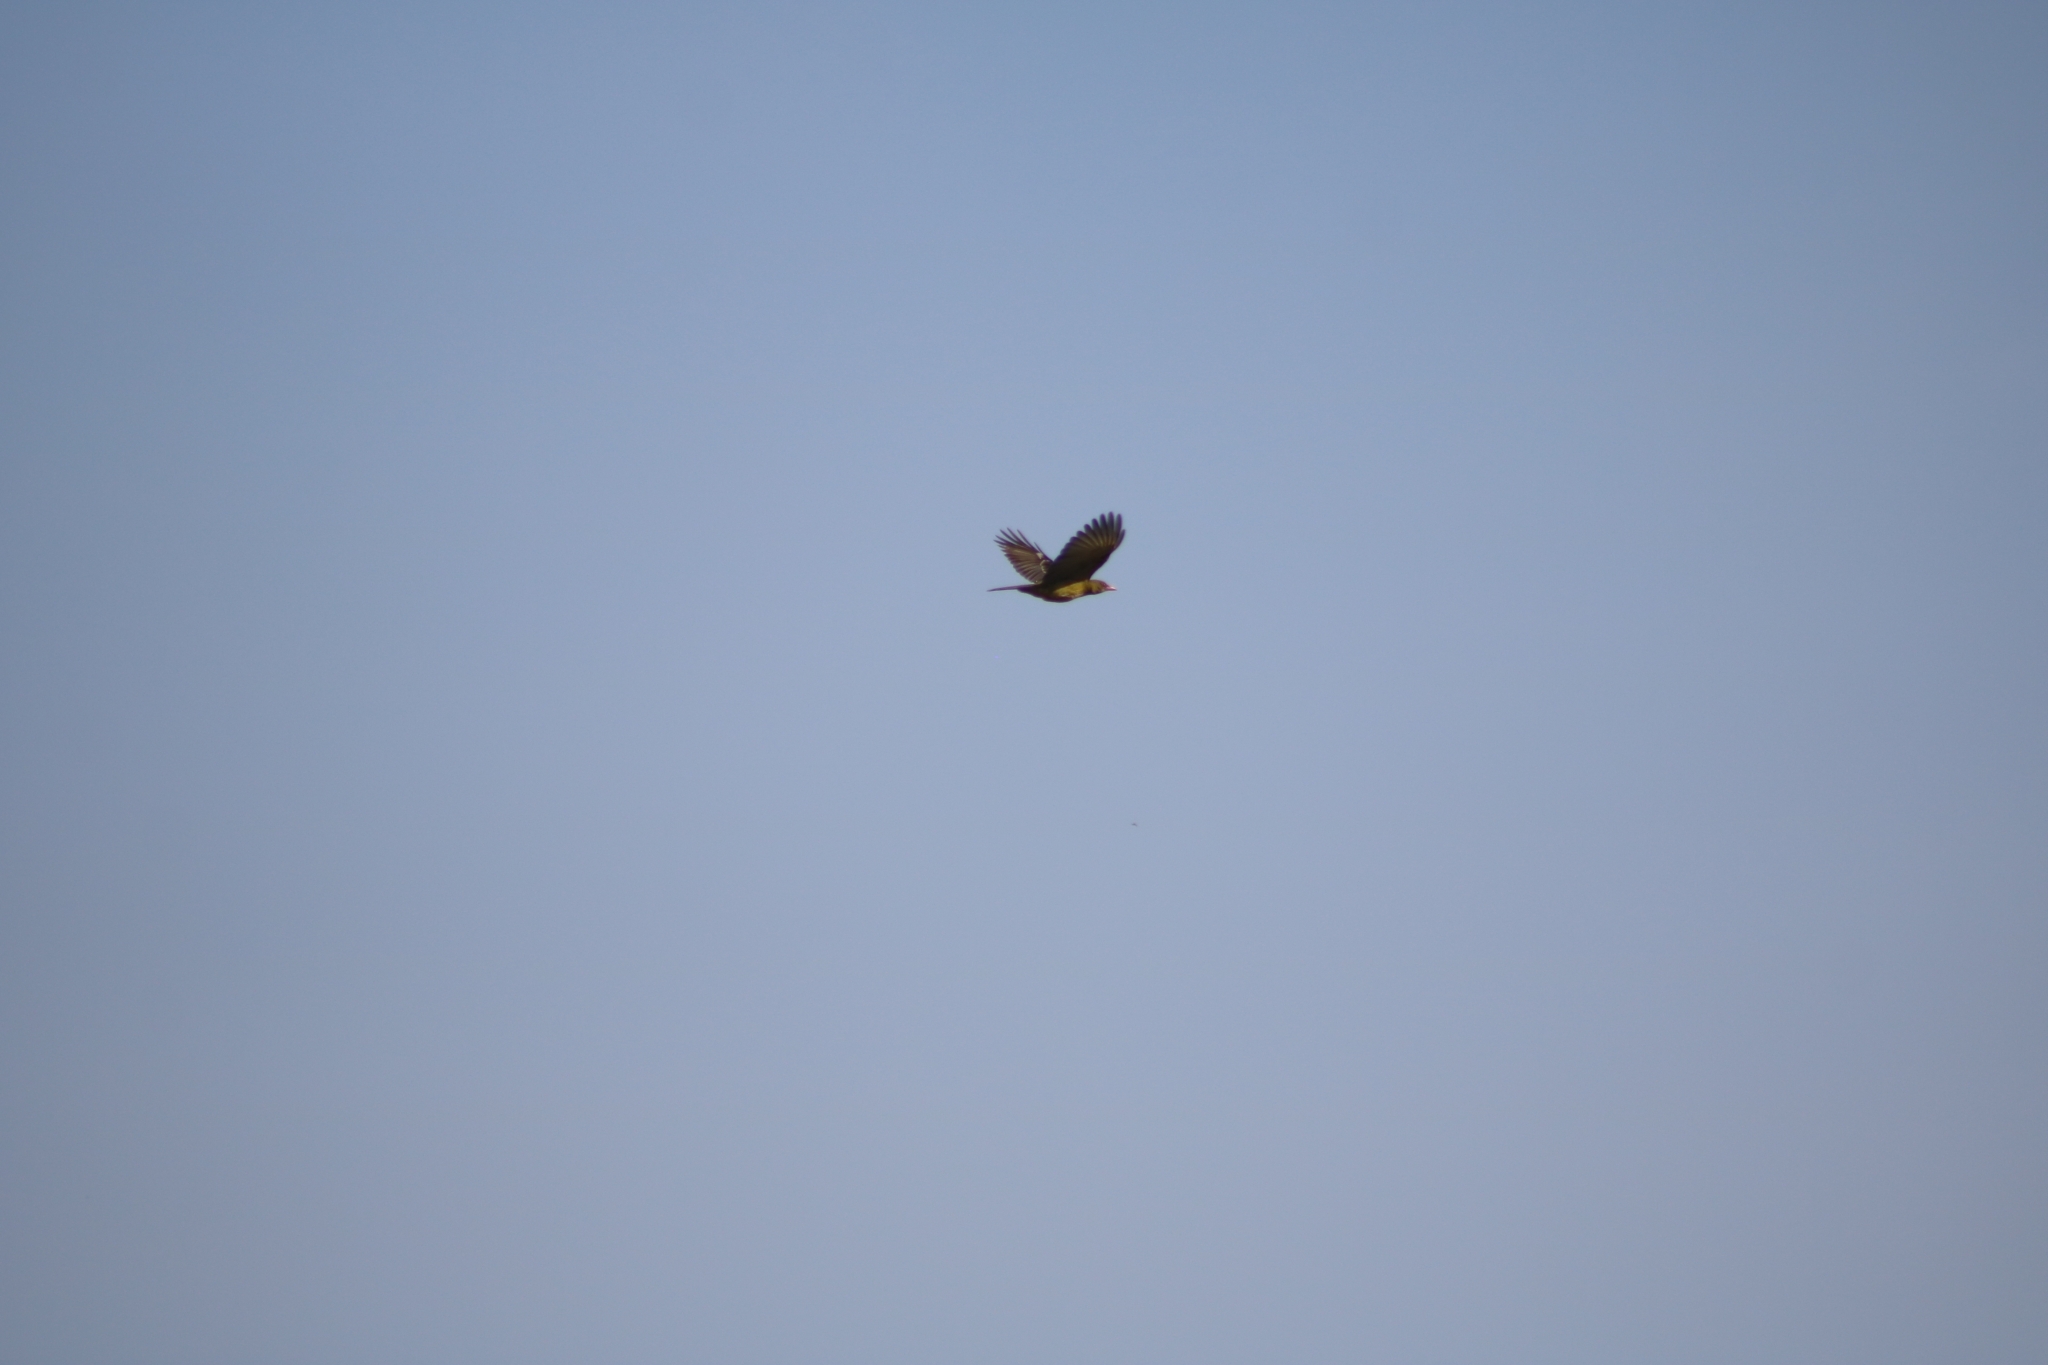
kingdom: Animalia
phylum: Chordata
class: Aves
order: Passeriformes
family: Oriolidae
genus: Oriolus
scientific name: Oriolus flavocinctus
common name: Green oriole
